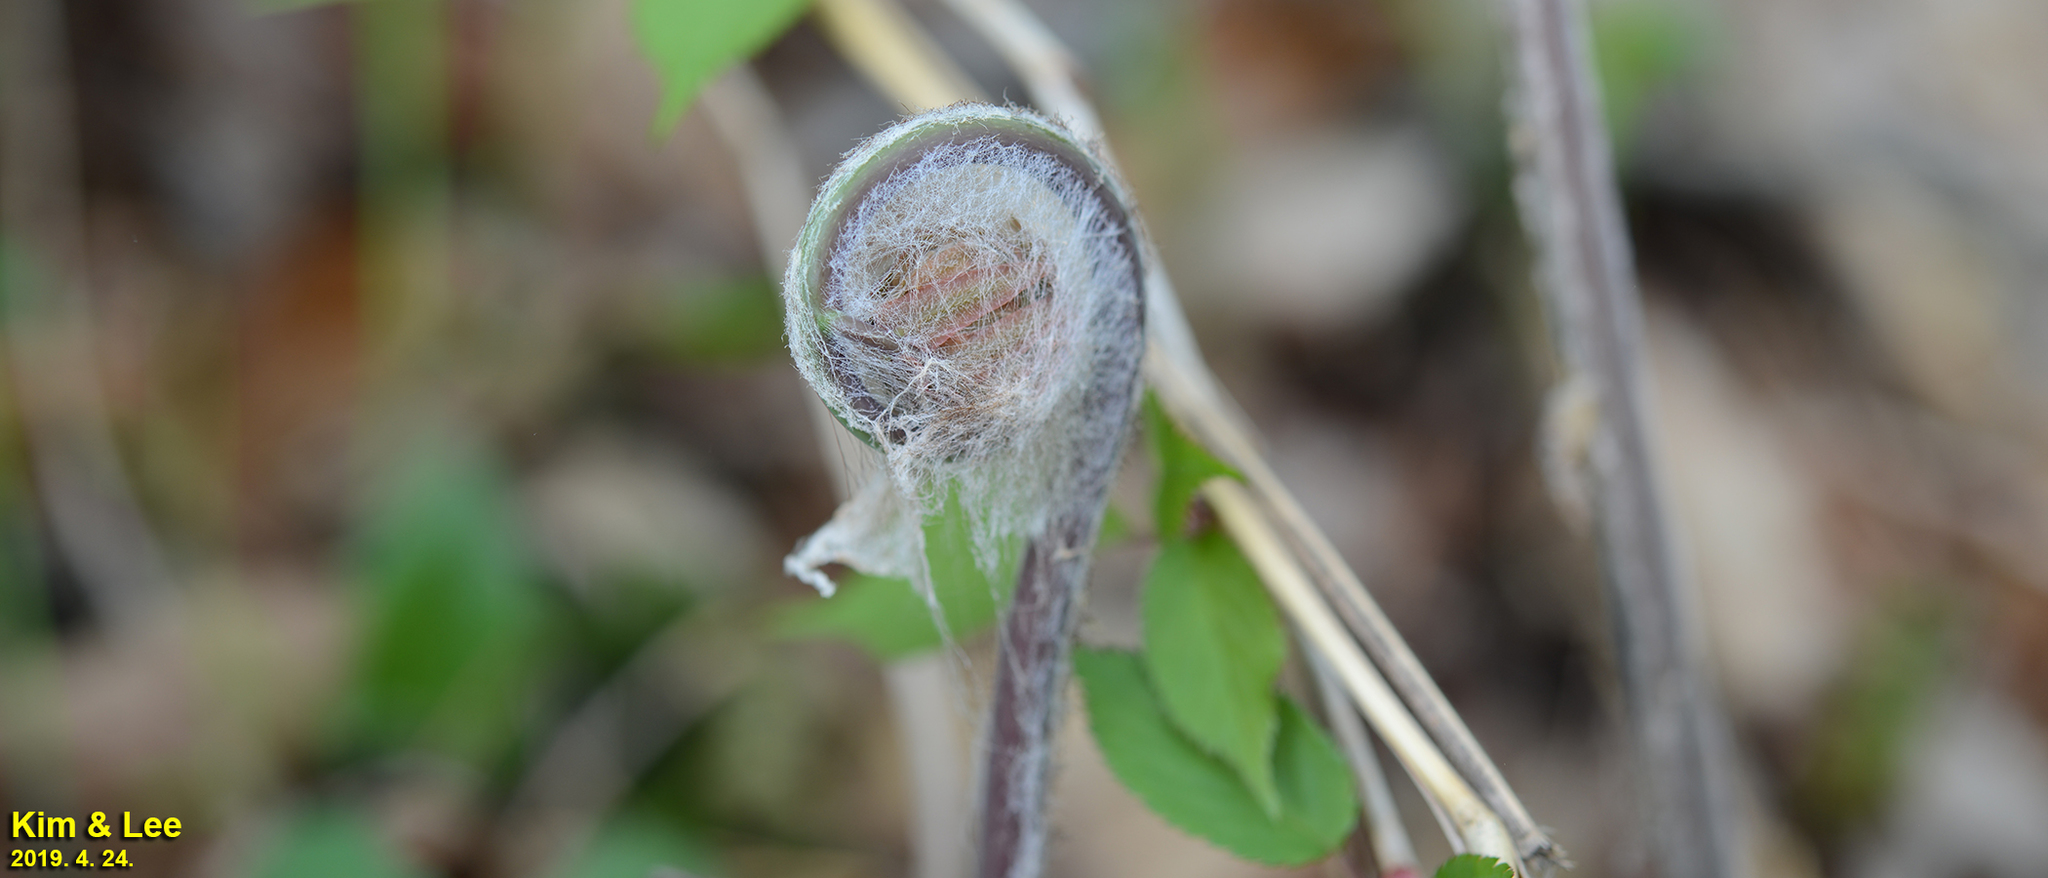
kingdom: Plantae
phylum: Tracheophyta
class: Polypodiopsida
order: Osmundales
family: Osmundaceae
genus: Osmunda
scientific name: Osmunda japonica
